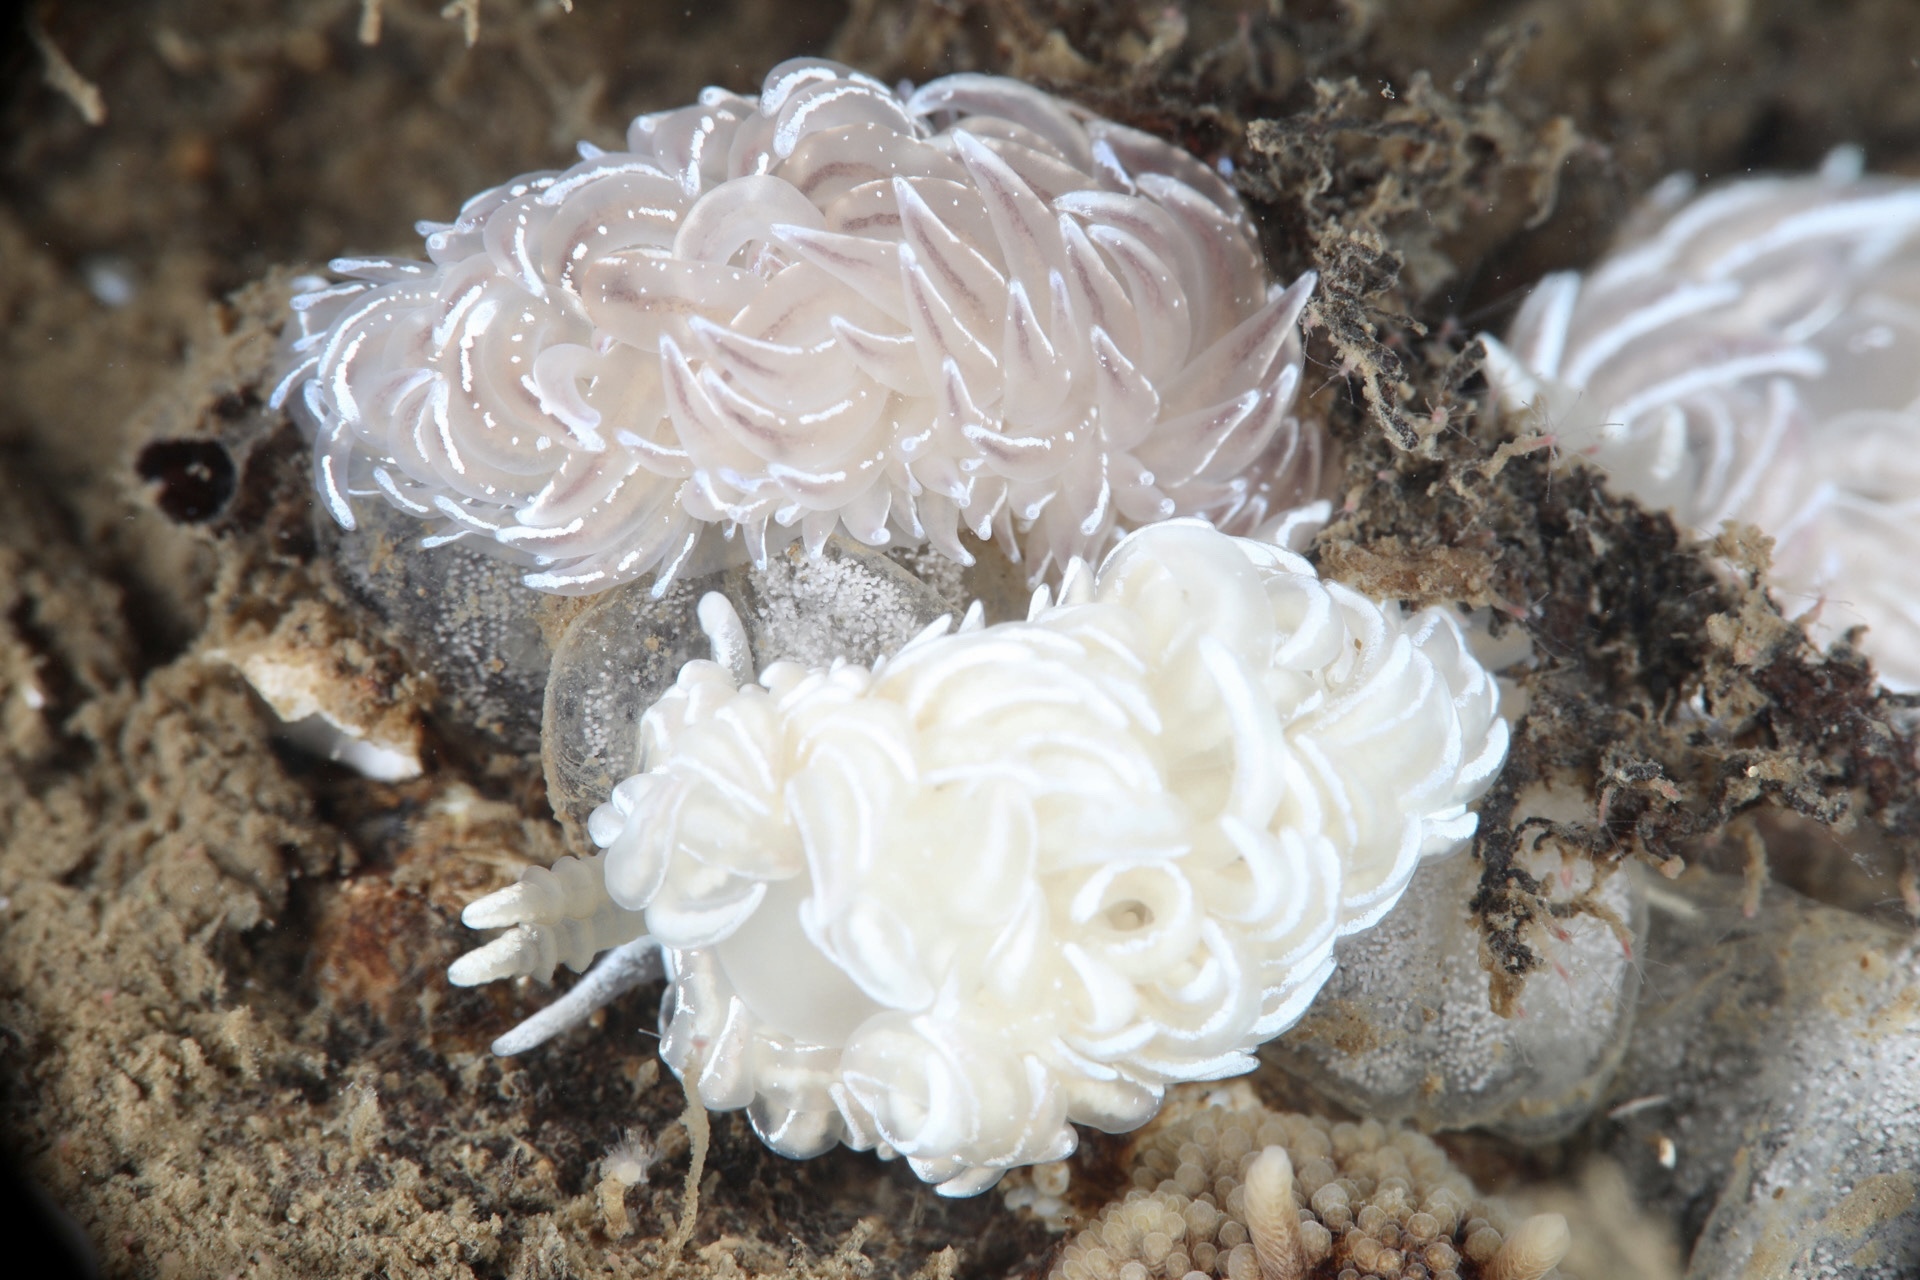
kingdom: Animalia
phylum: Mollusca
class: Gastropoda
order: Nudibranchia
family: Facelinidae
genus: Favorinus
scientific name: Favorinus blianus
